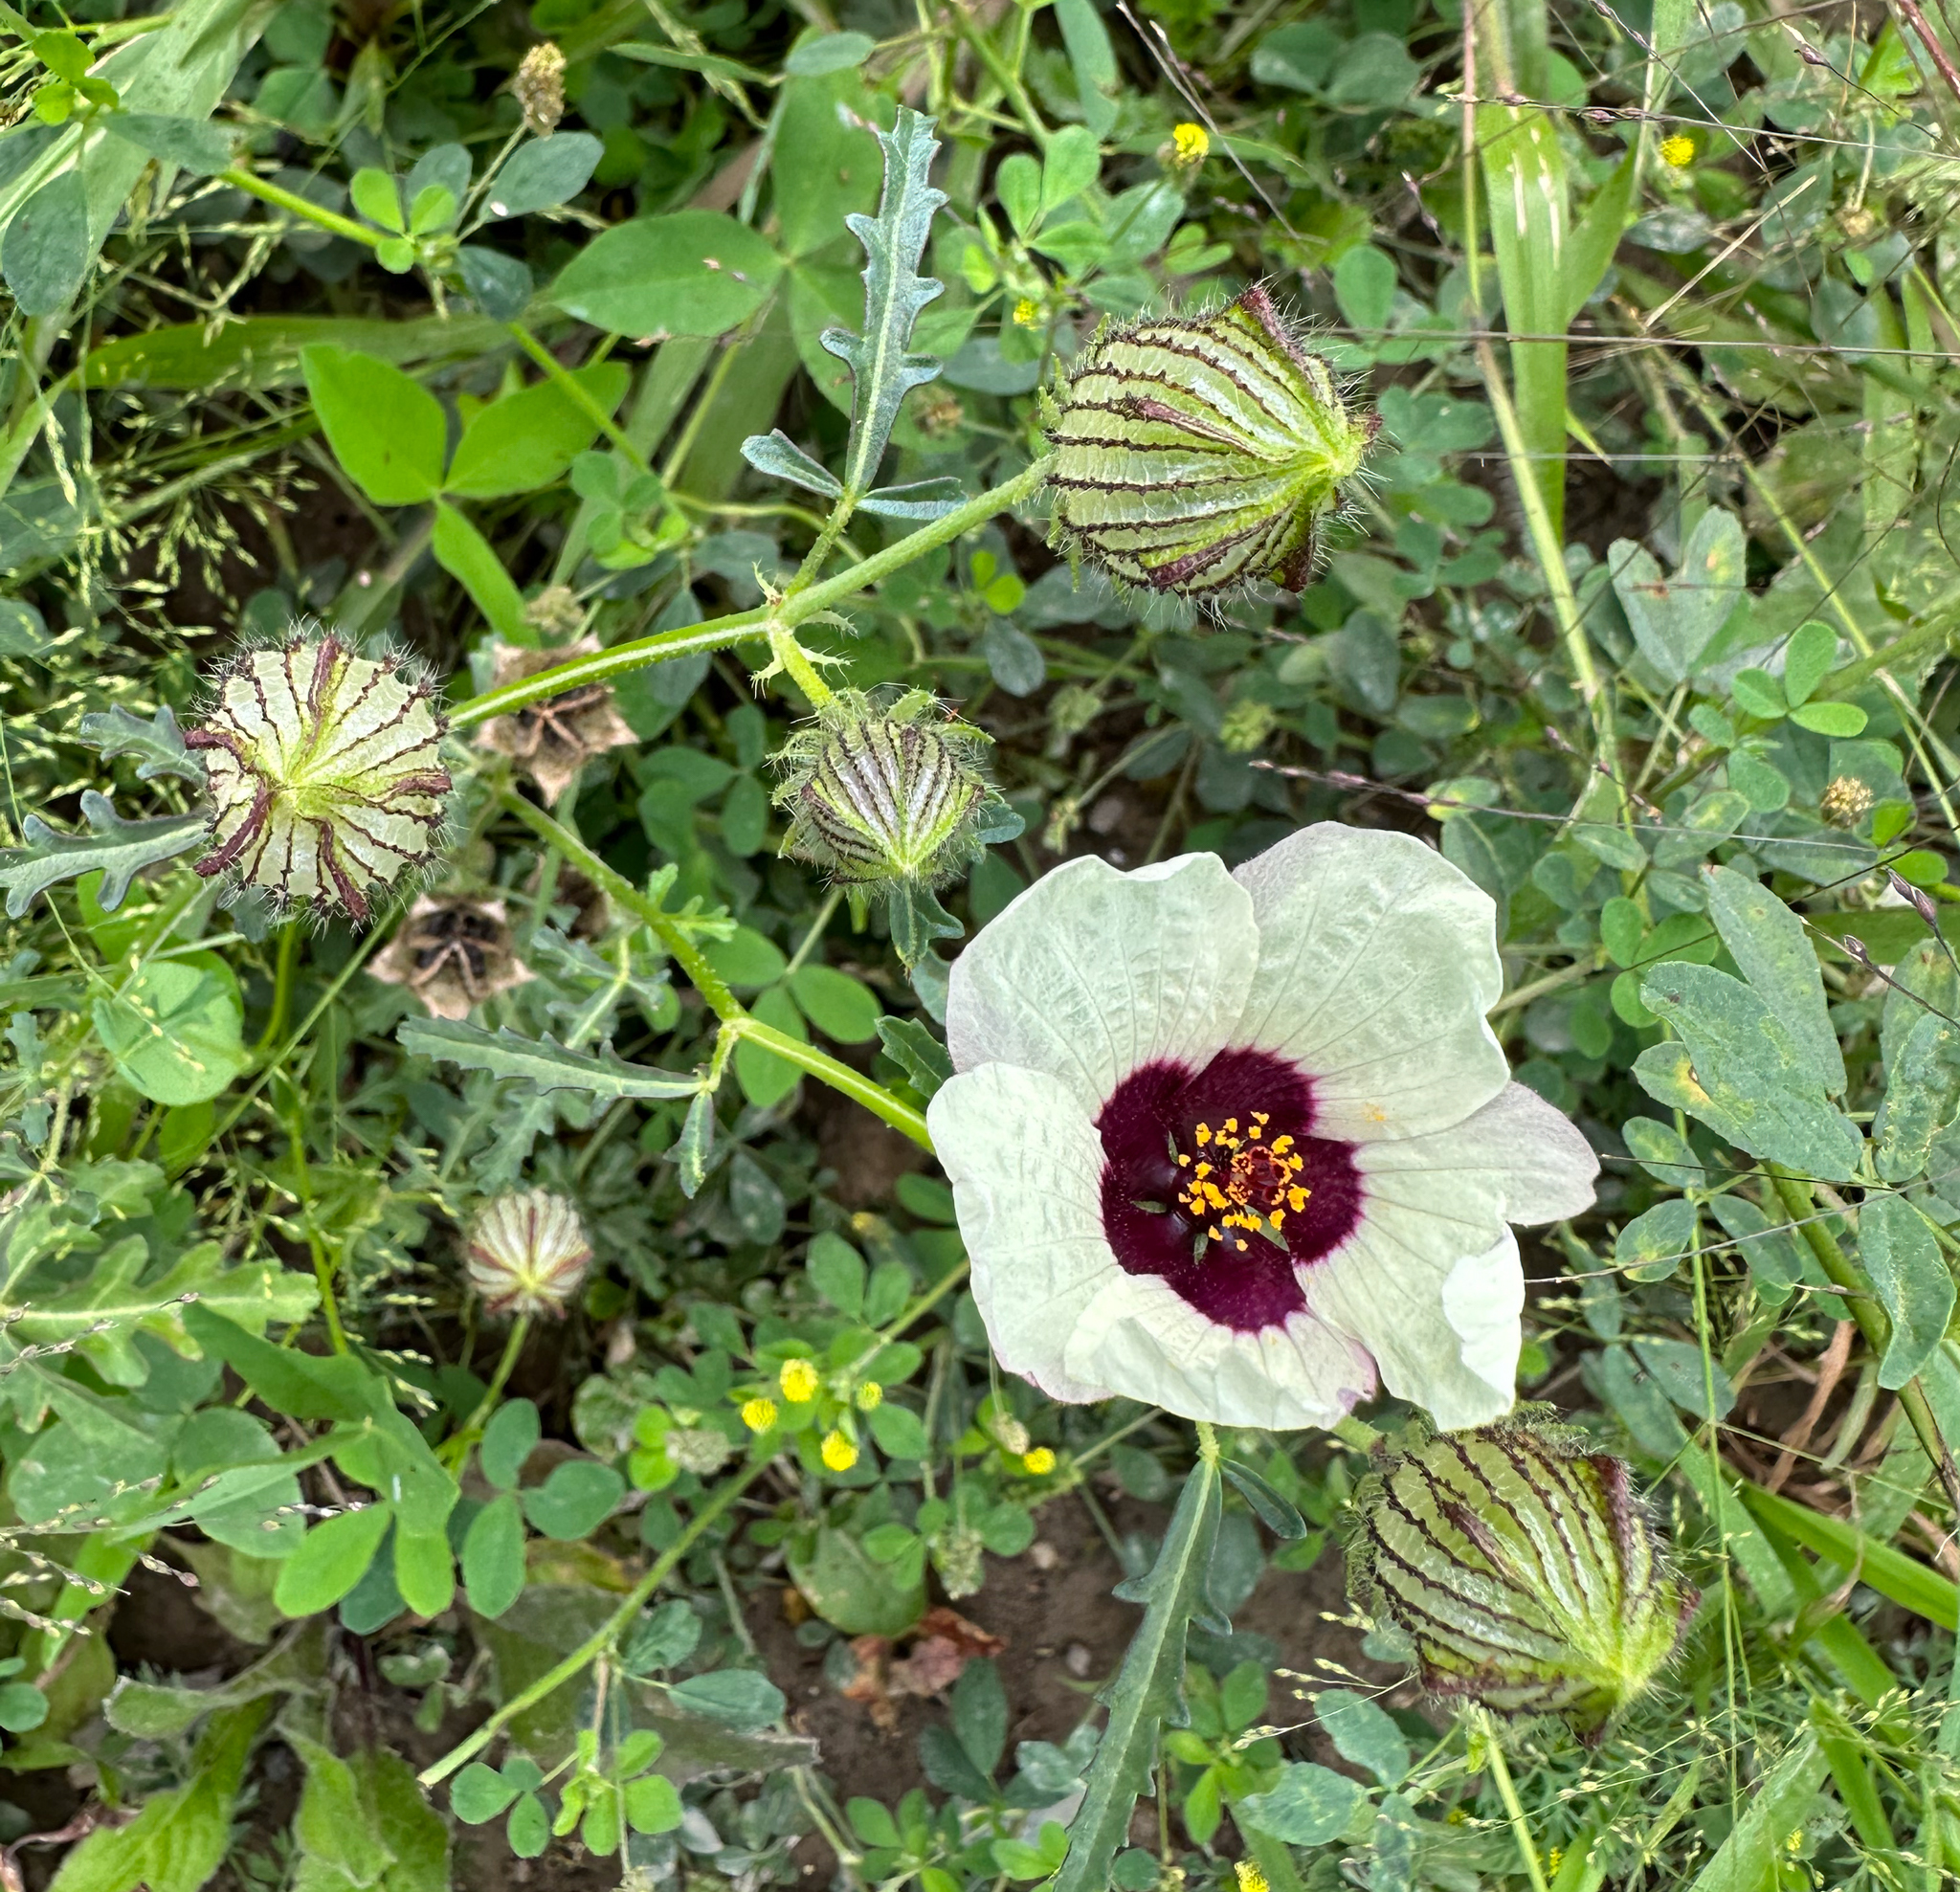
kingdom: Plantae
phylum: Tracheophyta
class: Magnoliopsida
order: Malvales
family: Malvaceae
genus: Hibiscus
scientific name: Hibiscus trionum
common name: Bladder ketmia
